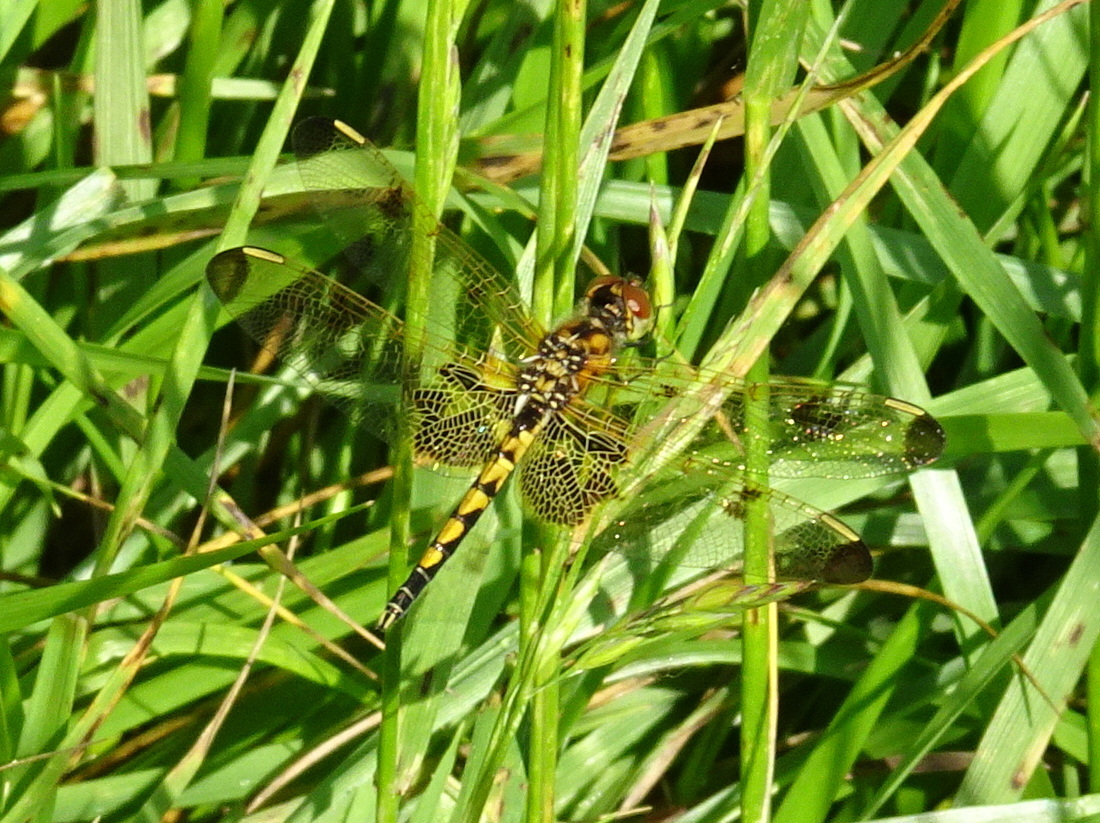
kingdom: Animalia
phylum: Arthropoda
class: Insecta
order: Odonata
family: Libellulidae
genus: Celithemis
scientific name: Celithemis elisa
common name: Calico pennant
